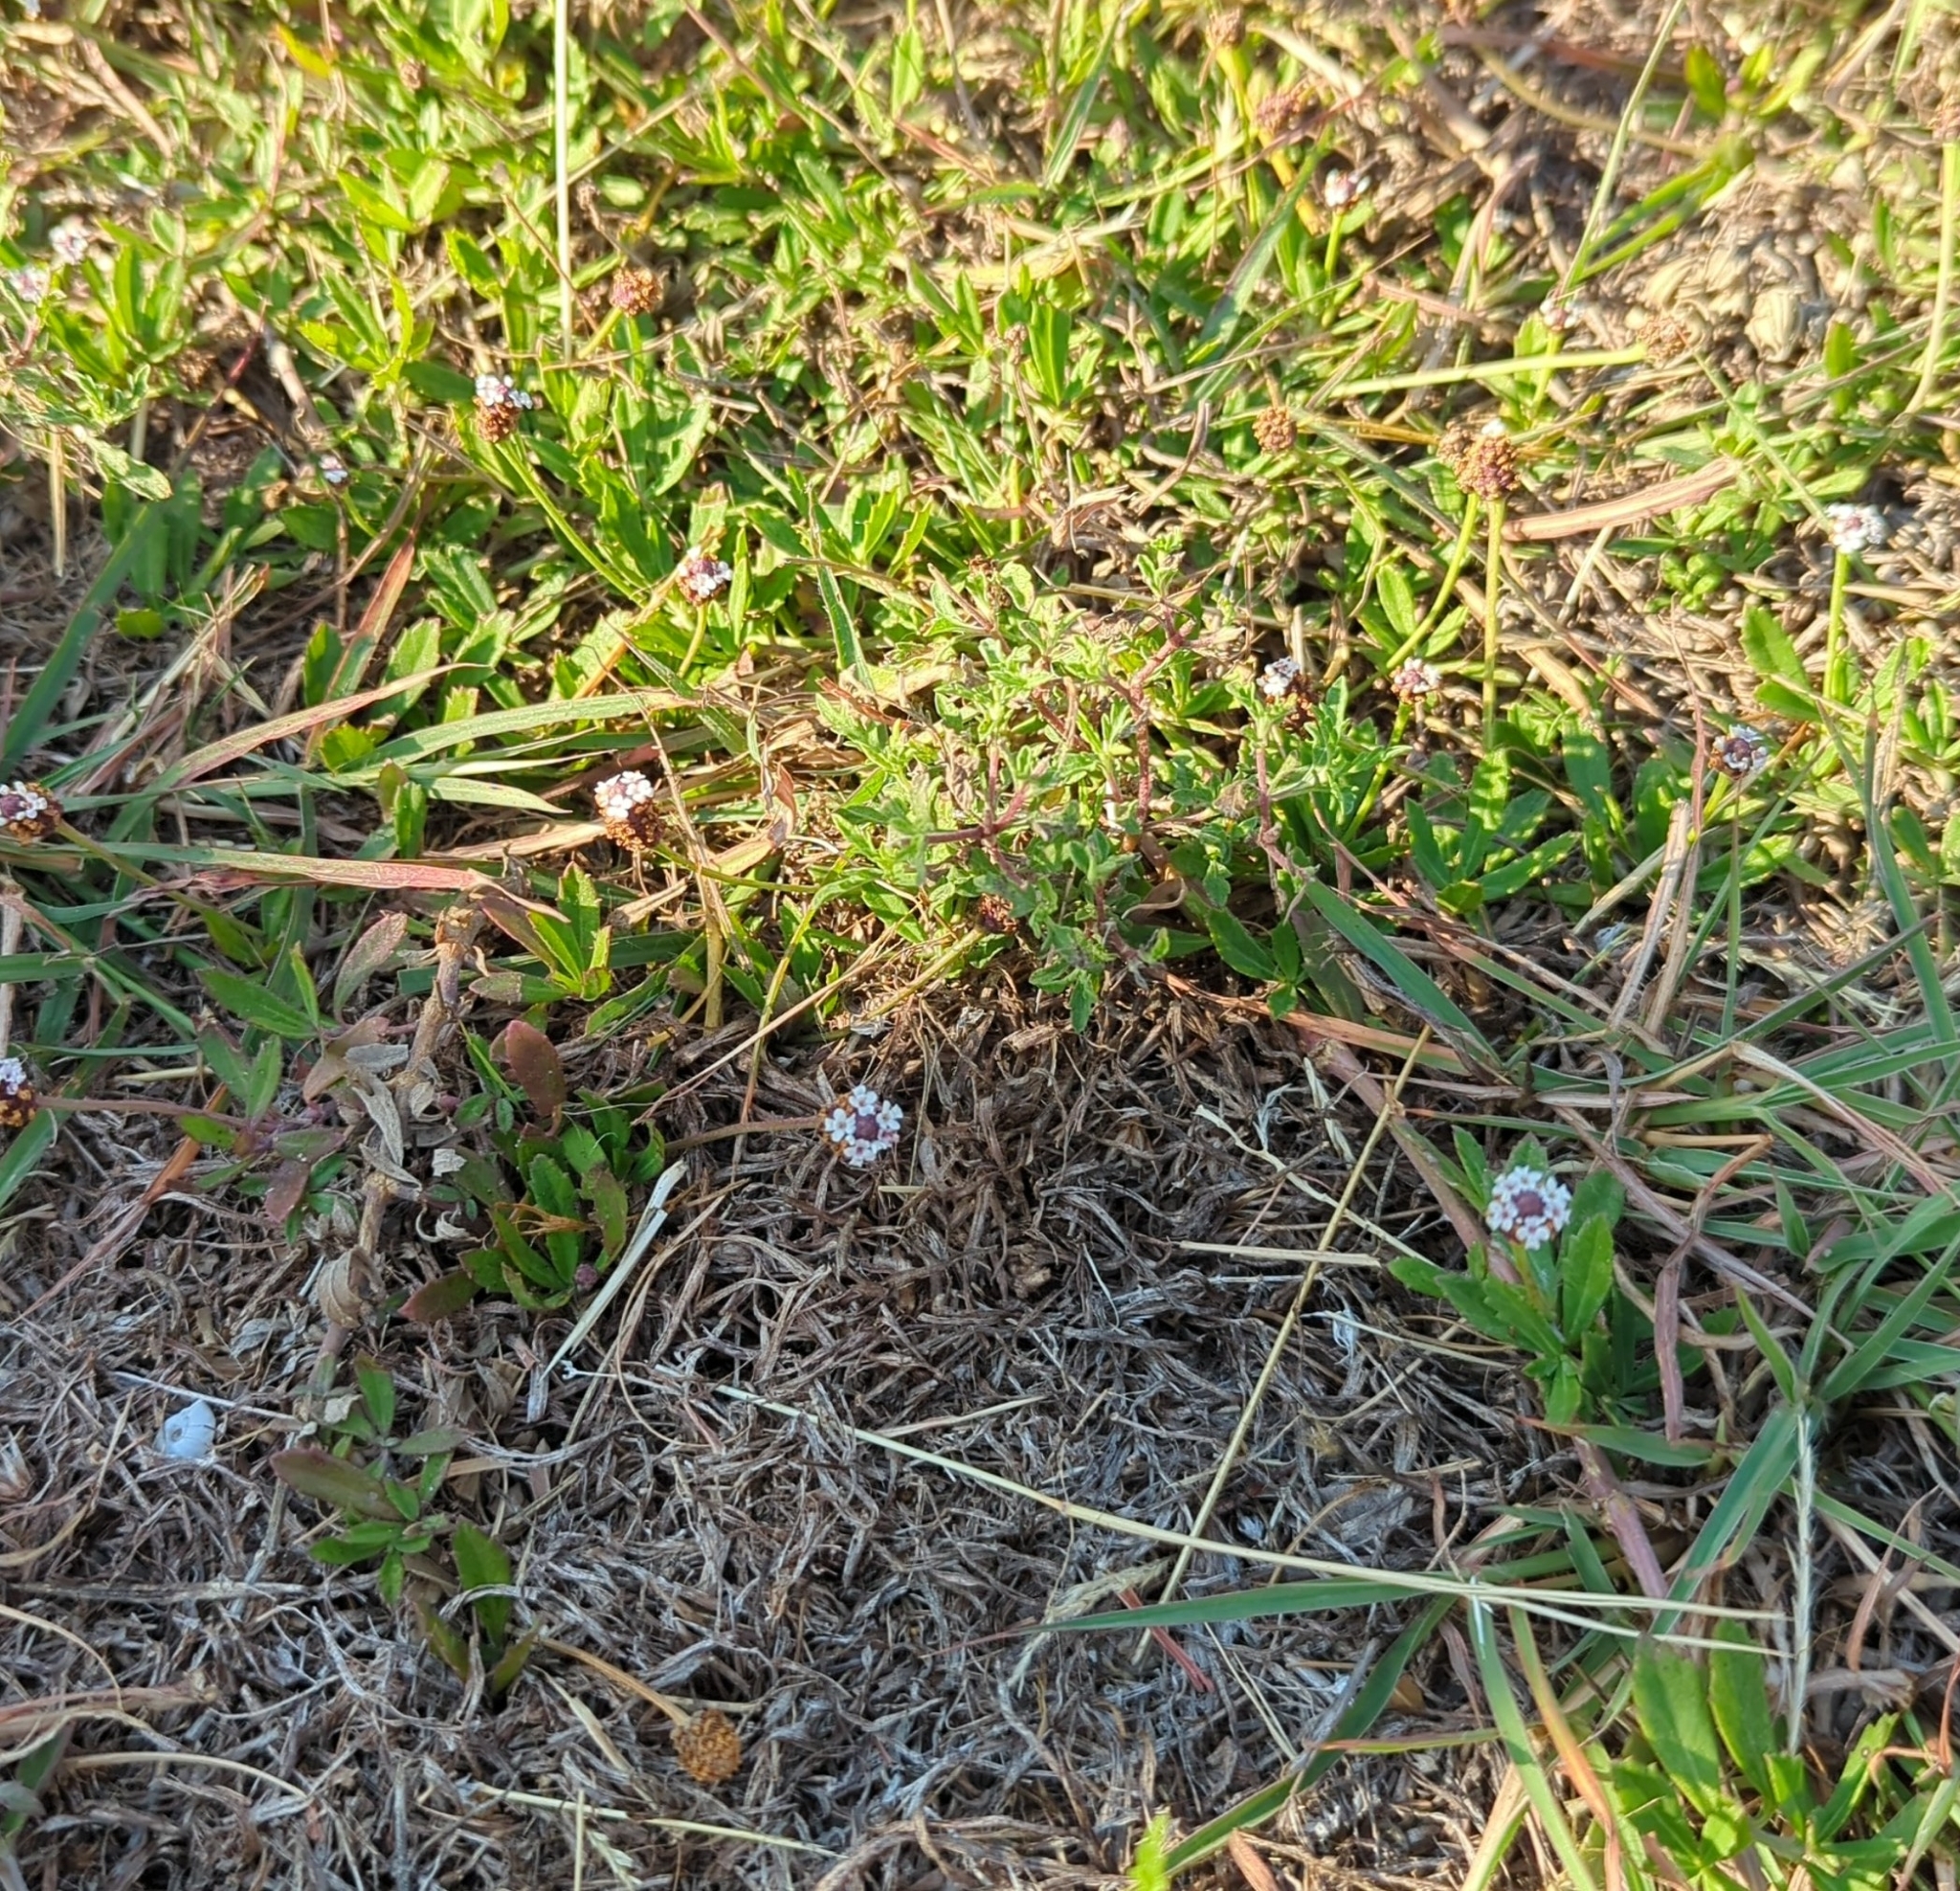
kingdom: Plantae
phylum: Tracheophyta
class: Magnoliopsida
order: Lamiales
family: Verbenaceae
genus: Phyla
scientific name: Phyla nodiflora
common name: Frogfruit
